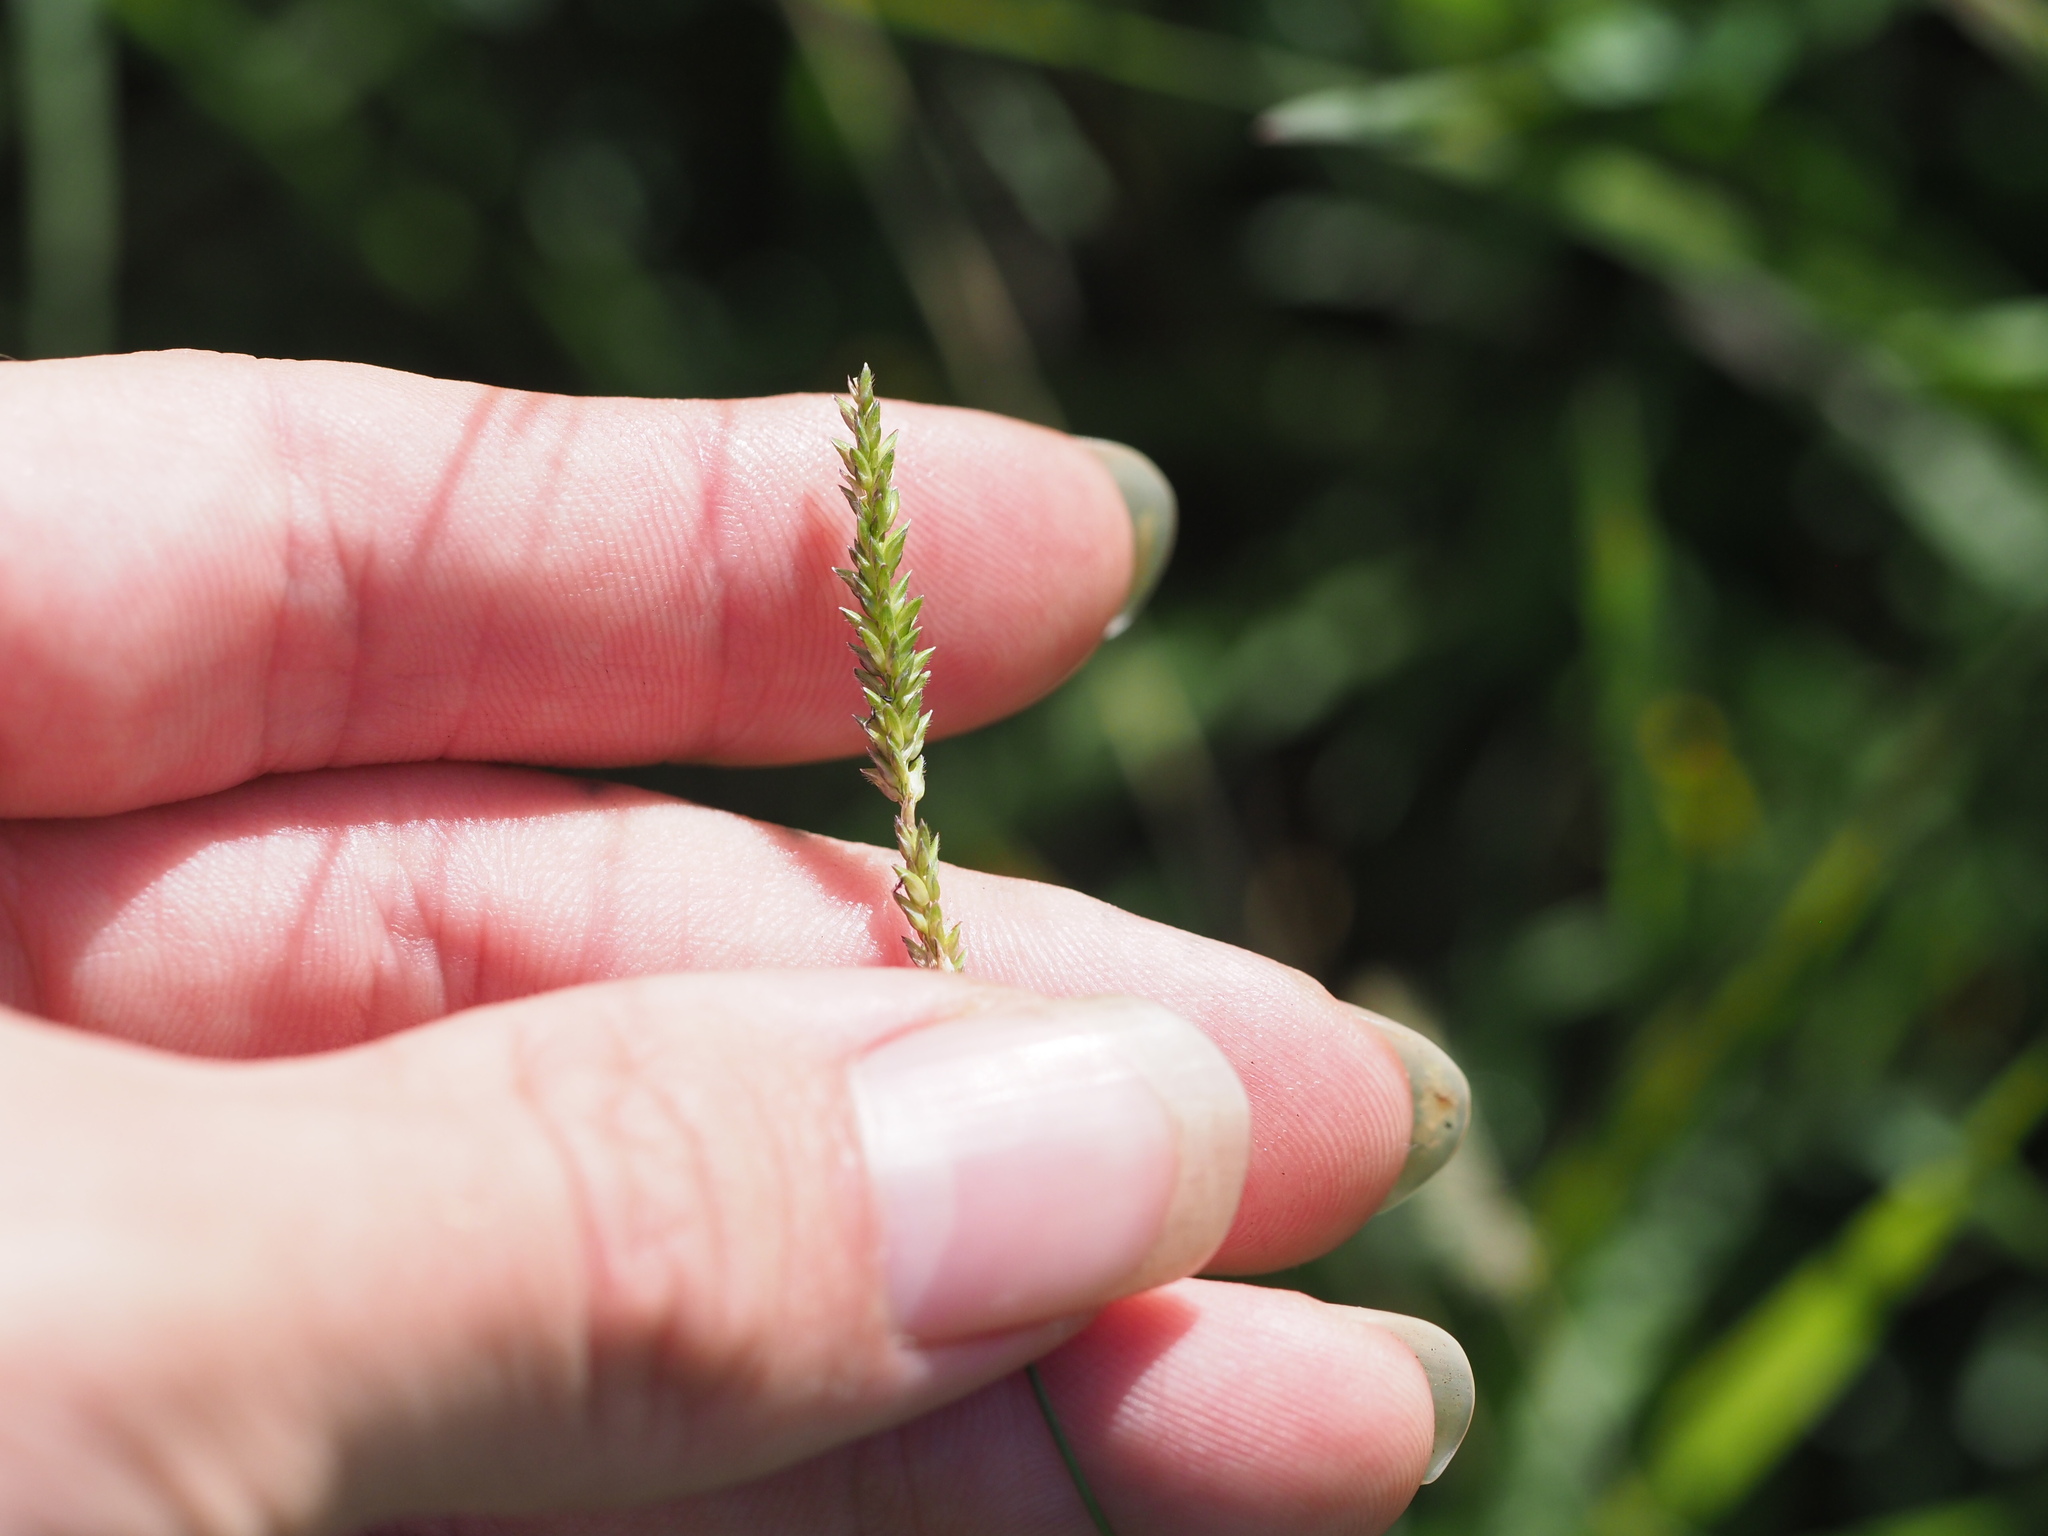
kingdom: Plantae
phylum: Tracheophyta
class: Liliopsida
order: Poales
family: Poaceae
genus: Sacciolepis
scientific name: Sacciolepis indica
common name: Glenwoodgrass
